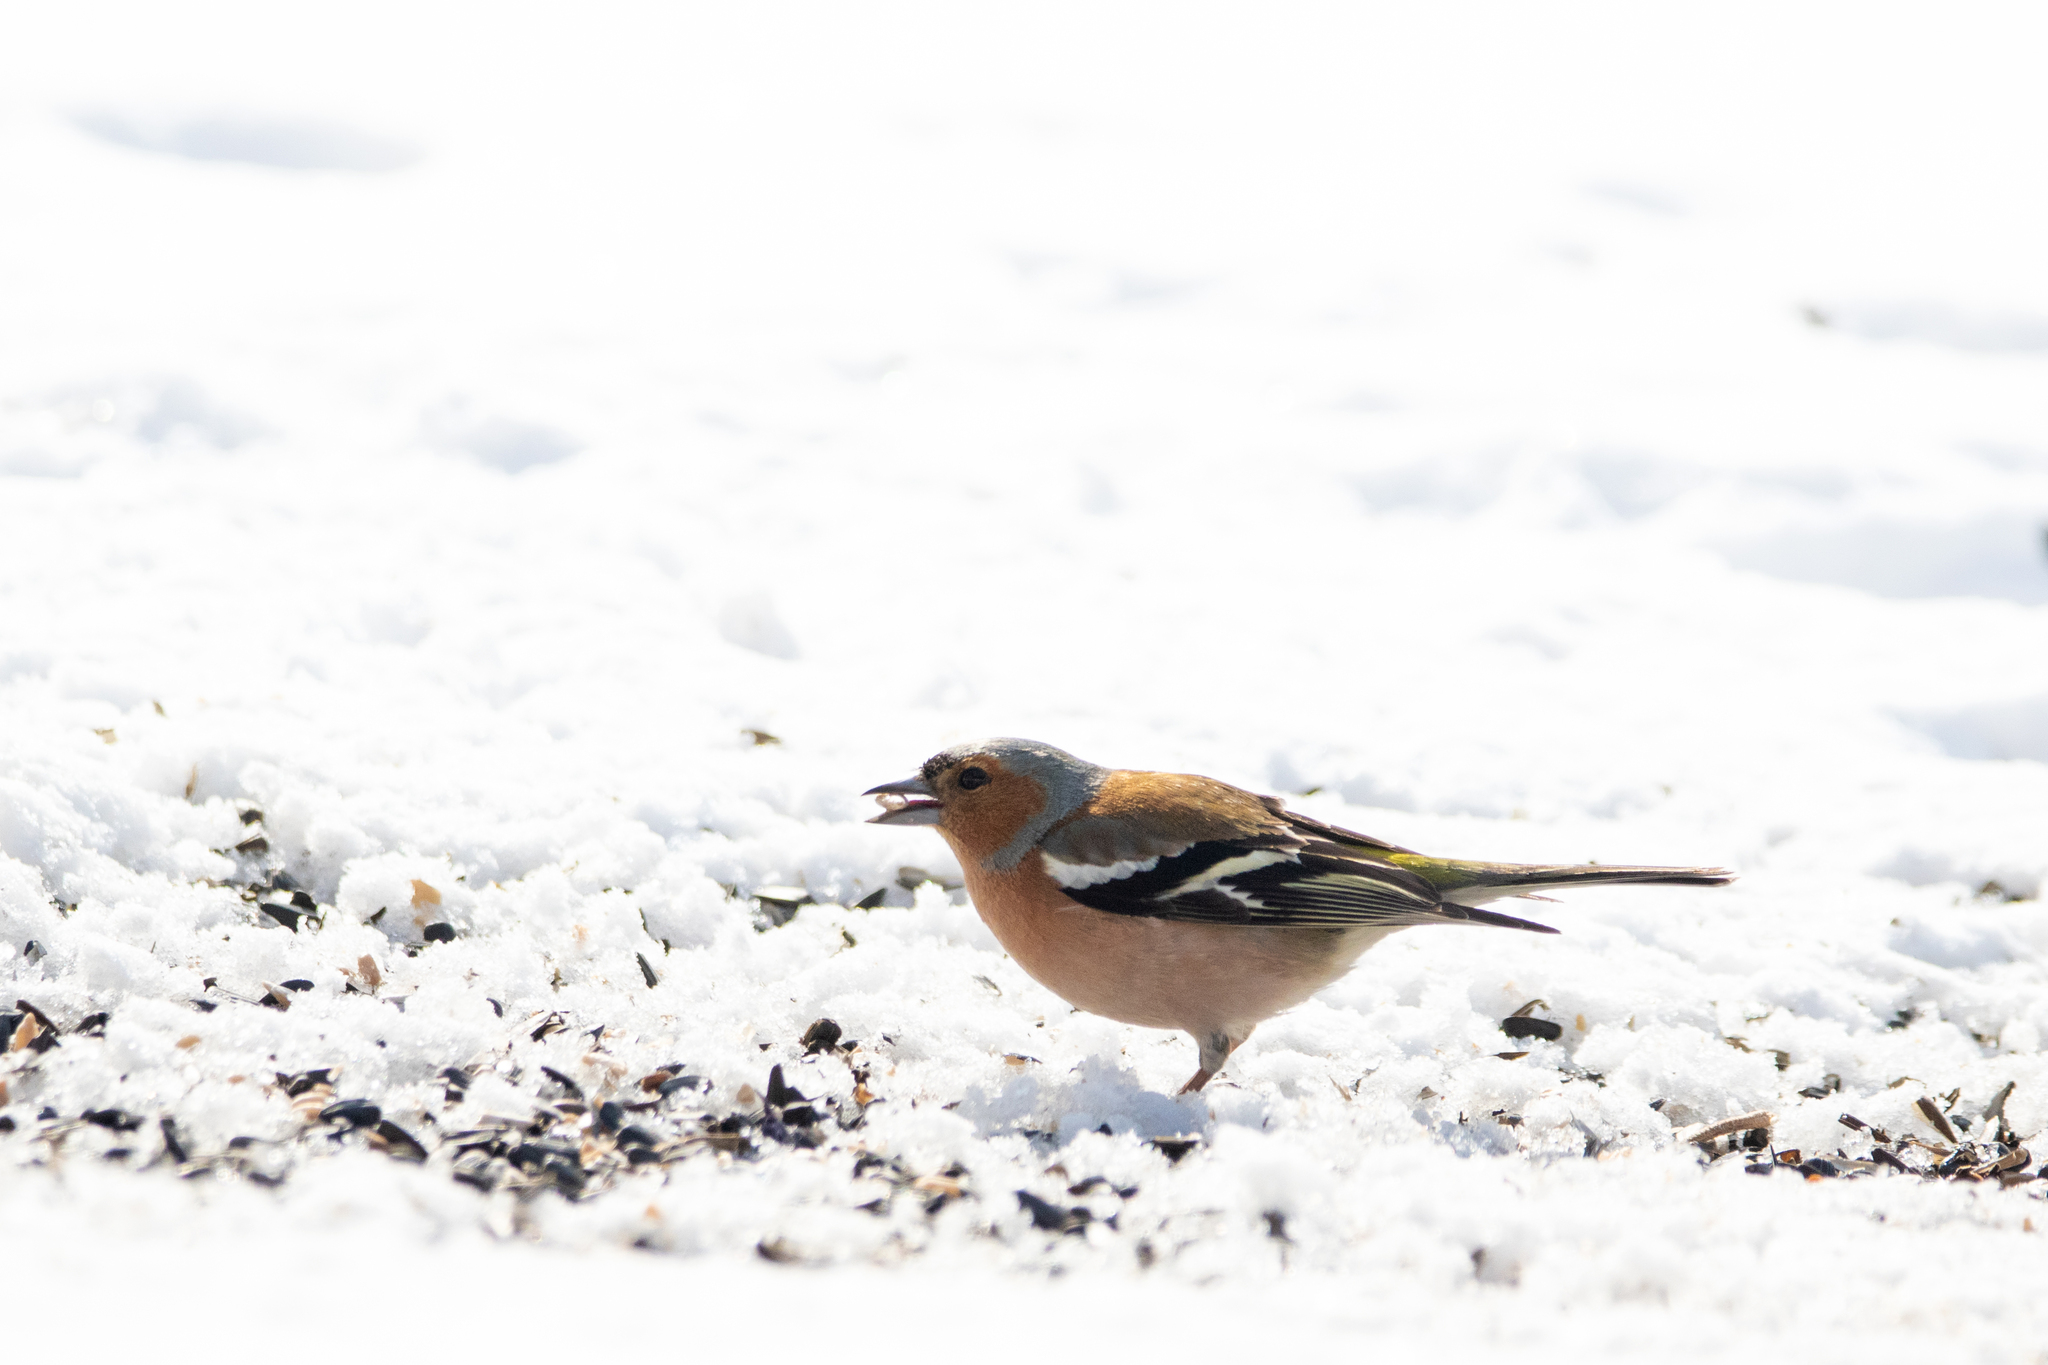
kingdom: Animalia
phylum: Chordata
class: Aves
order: Passeriformes
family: Fringillidae
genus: Fringilla
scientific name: Fringilla coelebs
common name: Common chaffinch
